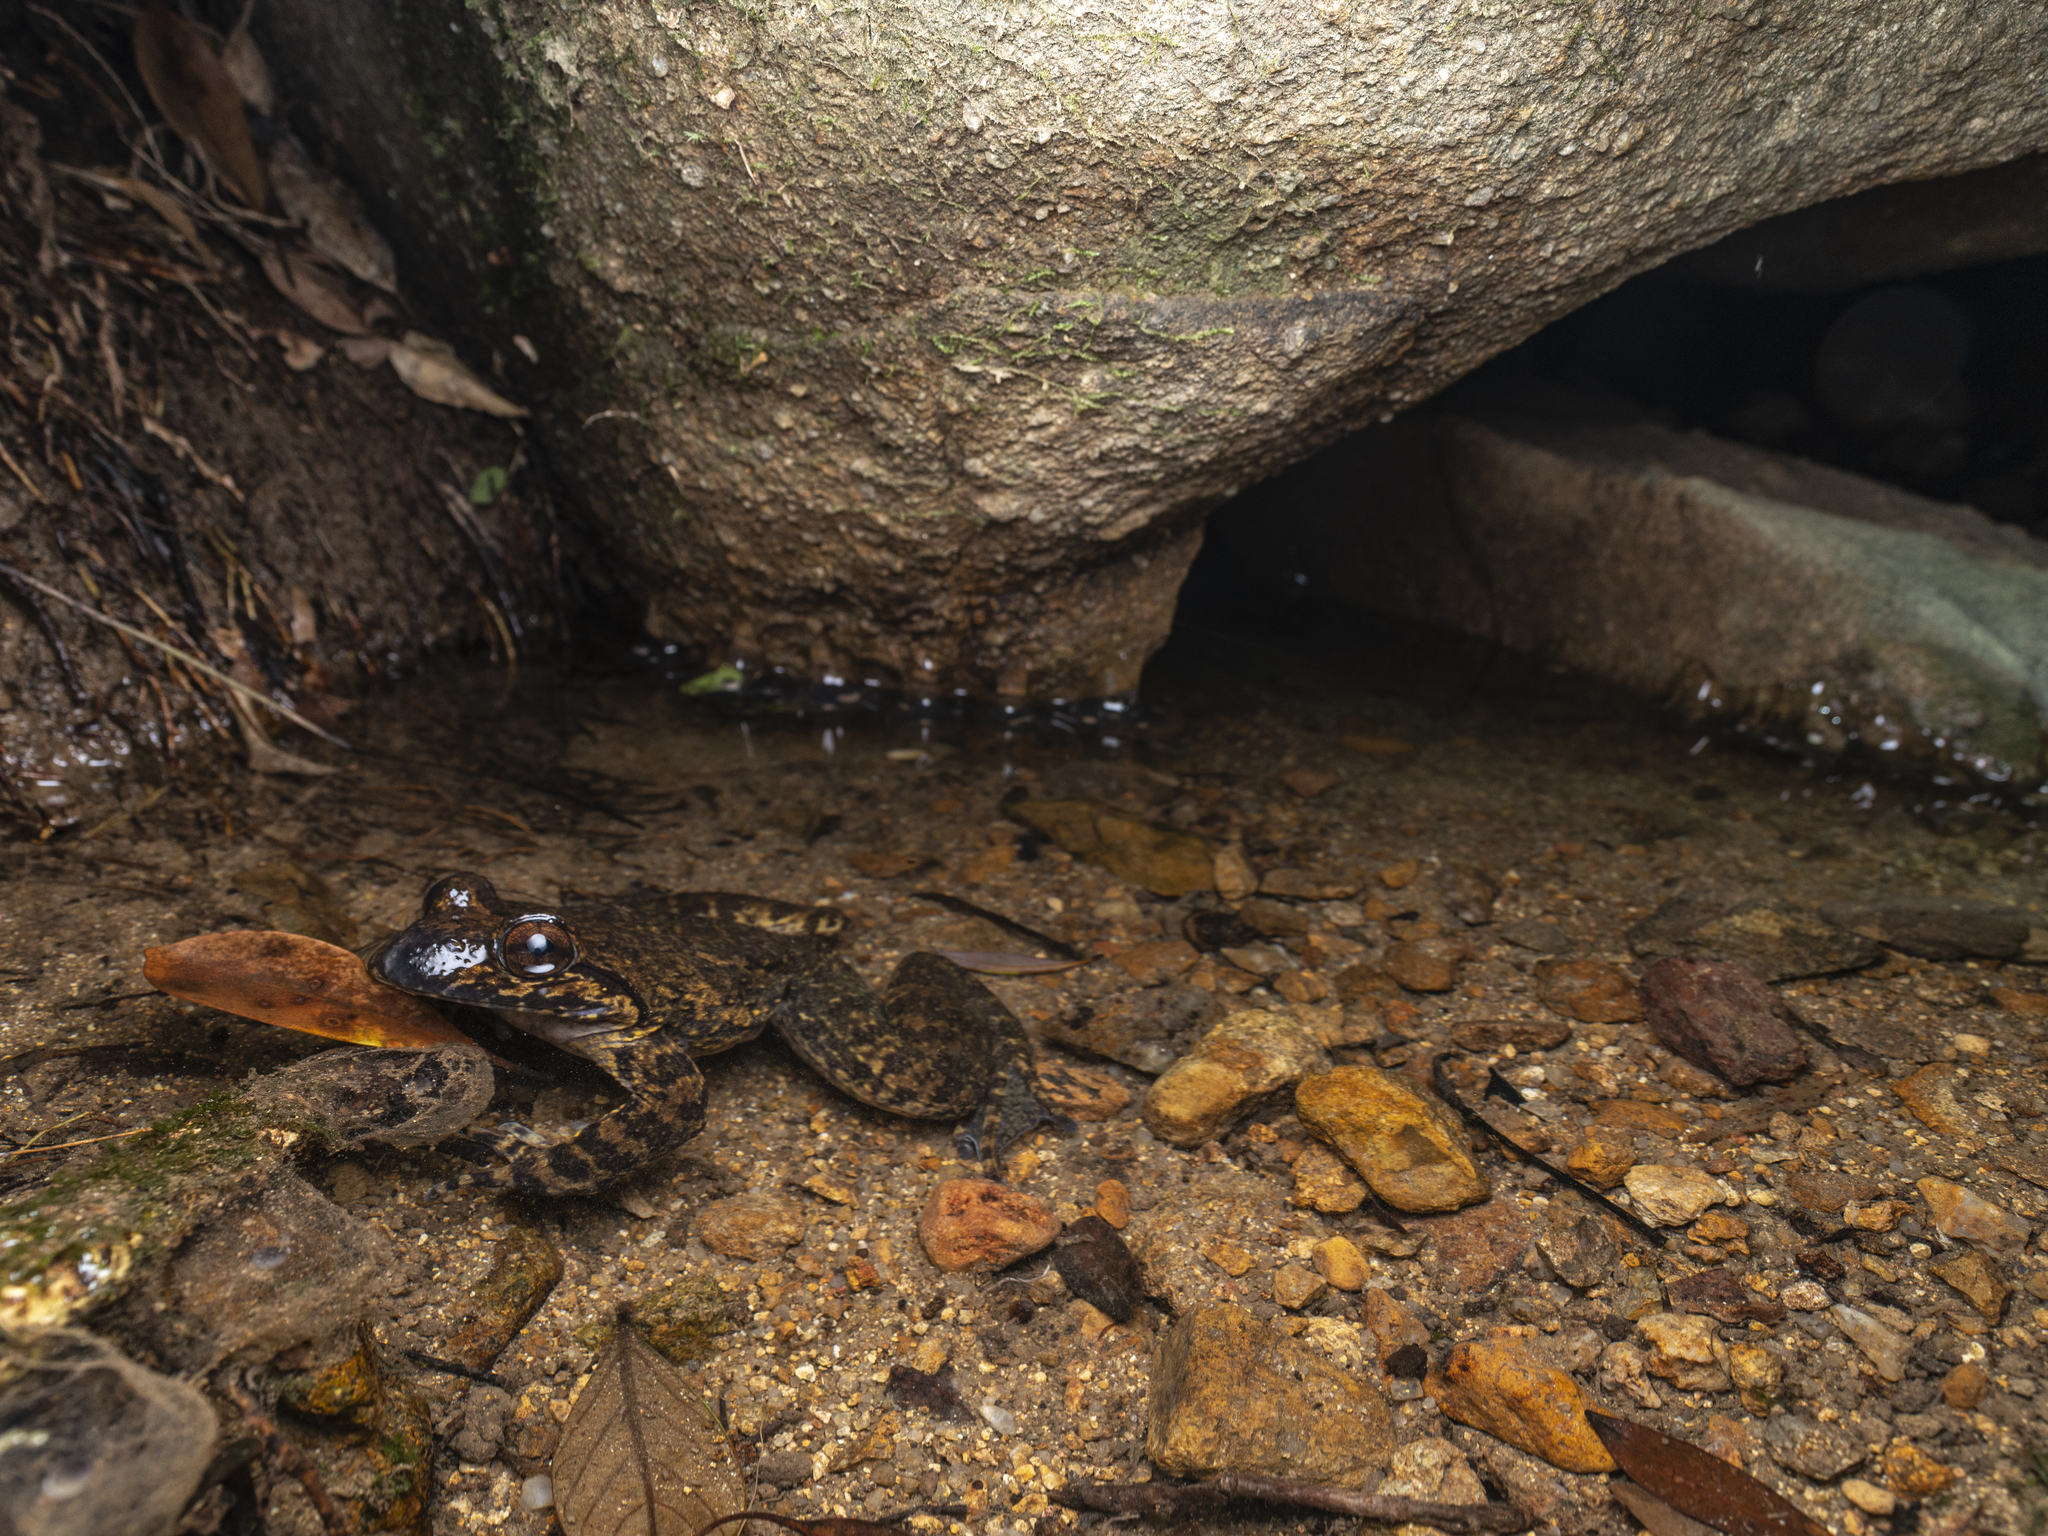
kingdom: Animalia
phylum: Chordata
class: Amphibia
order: Anura
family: Dicroglossidae
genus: Quasipaa
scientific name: Quasipaa spinosa
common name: Chinese edible frog
